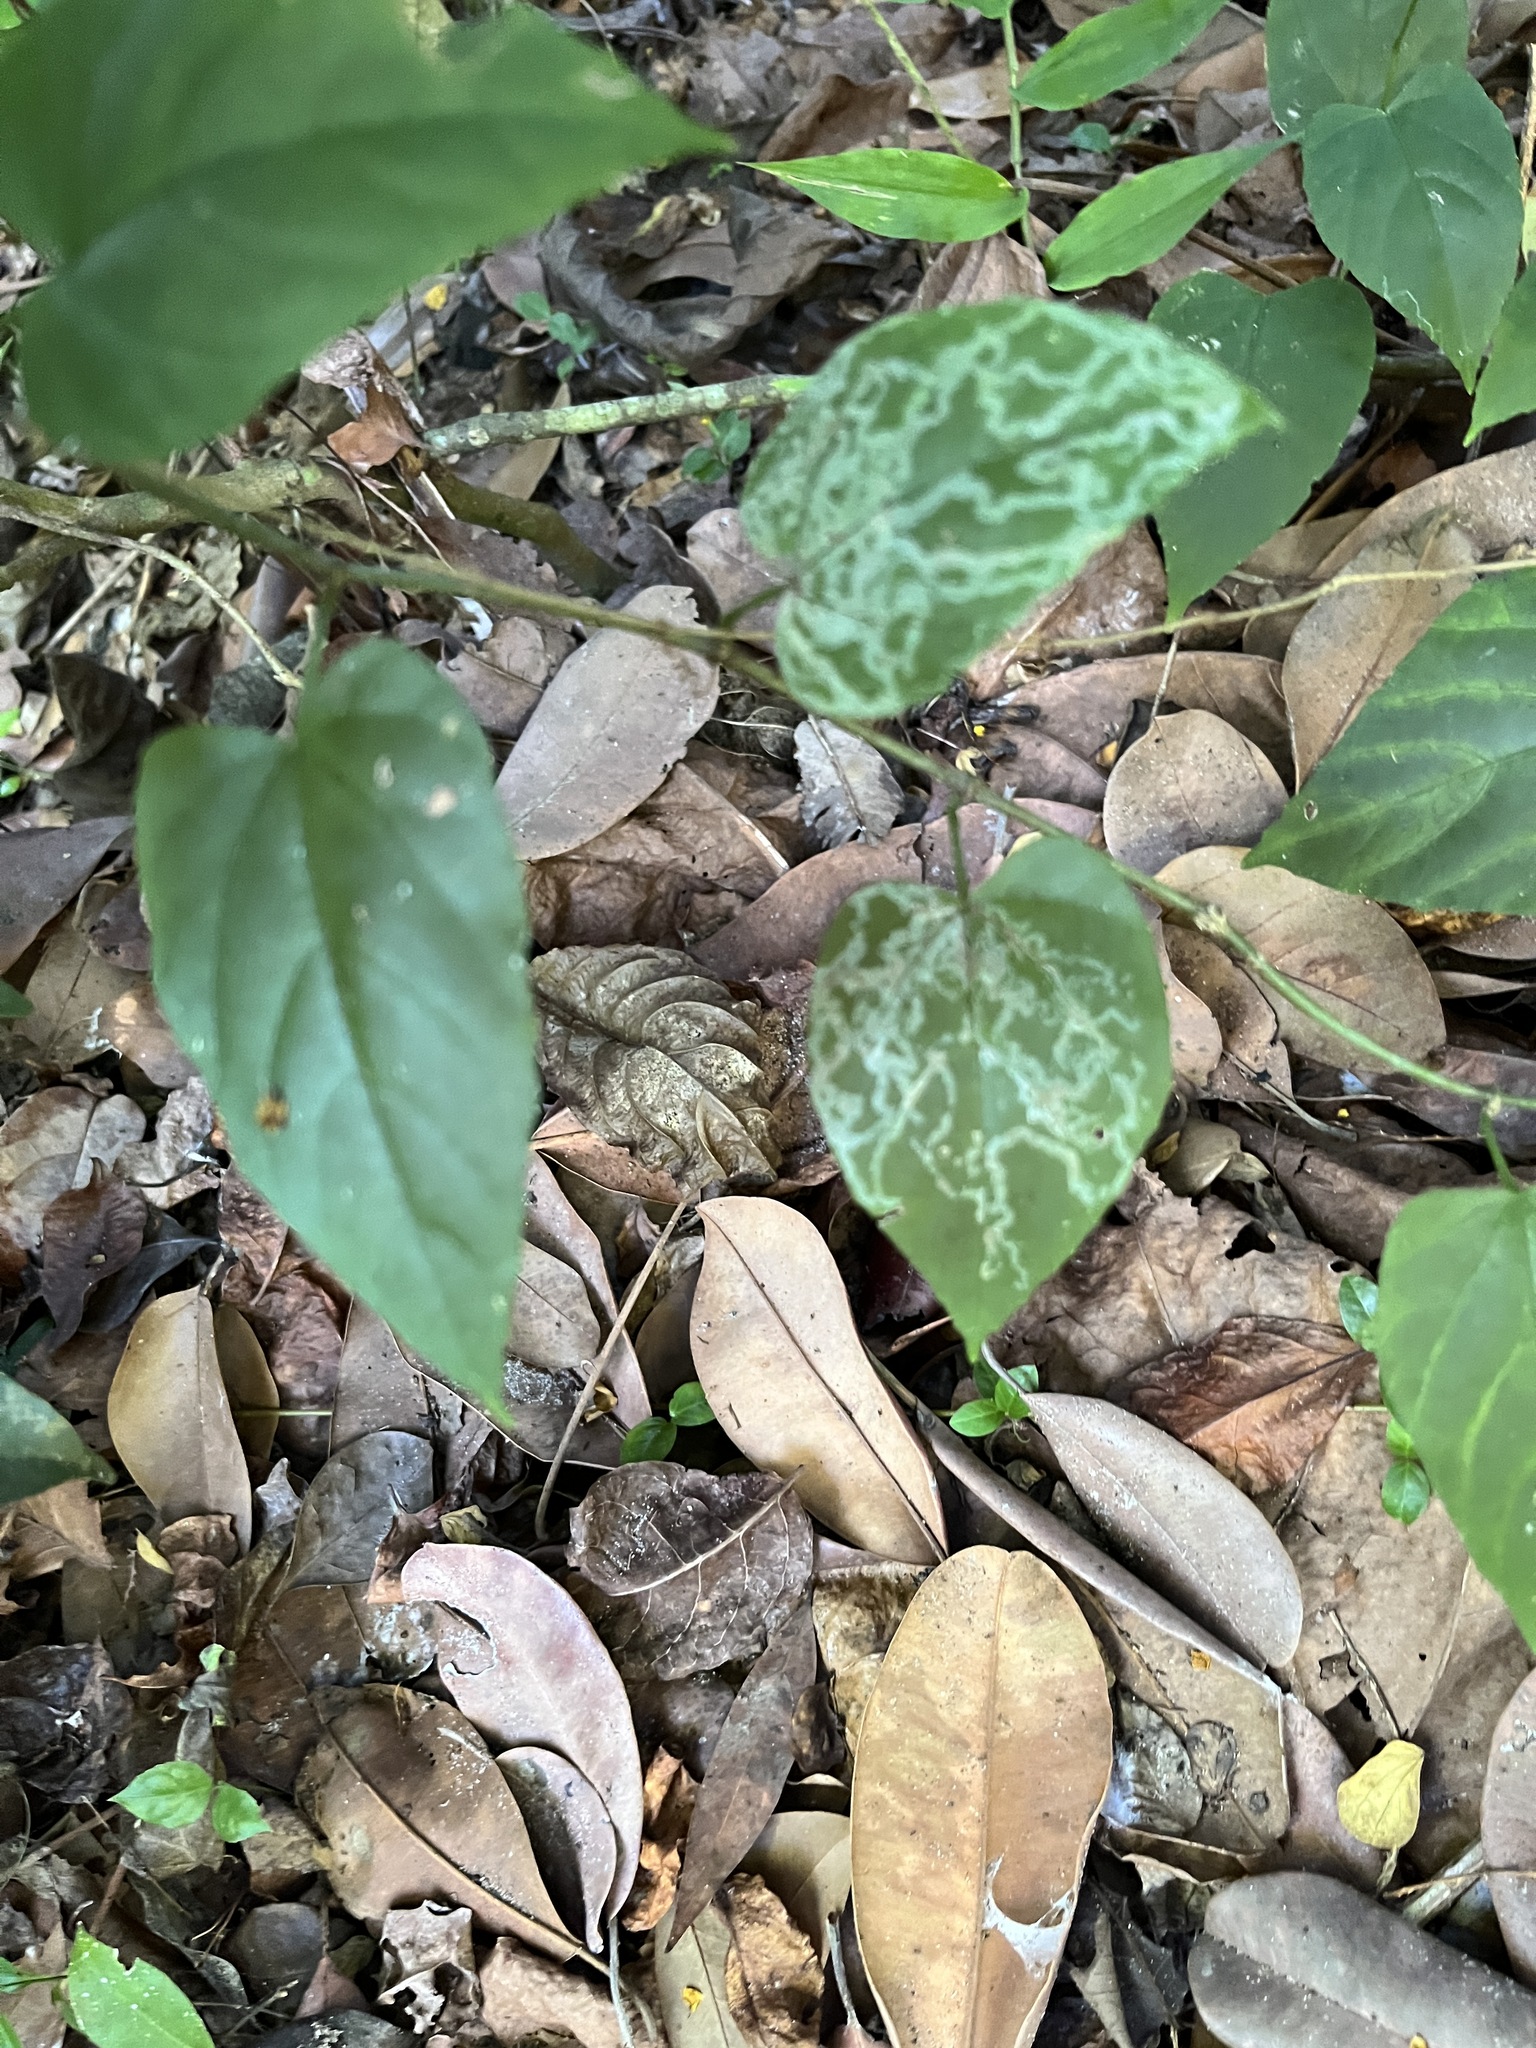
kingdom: Plantae
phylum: Tracheophyta
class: Magnoliopsida
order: Vitales
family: Vitaceae
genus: Cissus
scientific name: Cissus verticillata
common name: Princess vine
